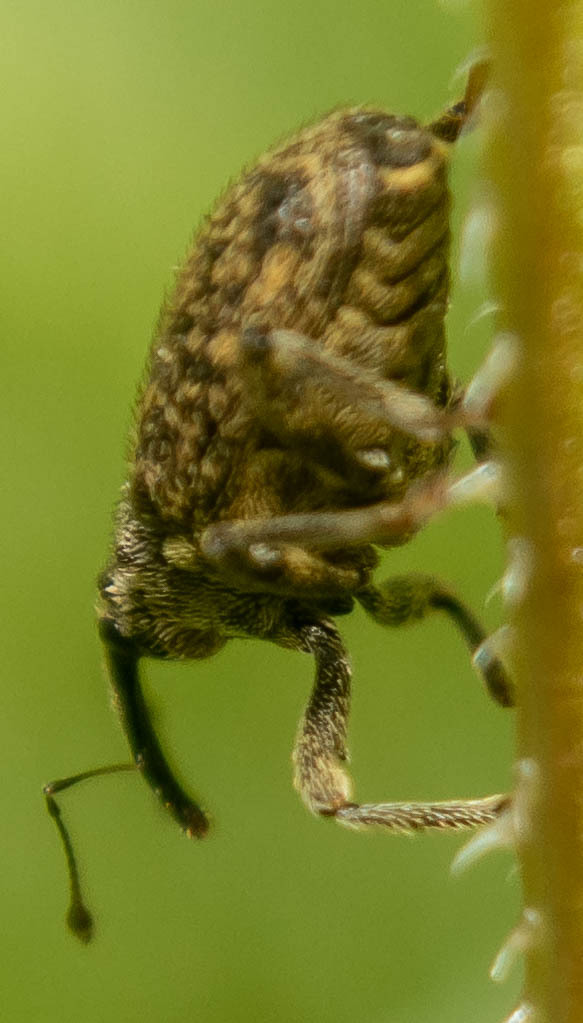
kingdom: Animalia
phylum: Arthropoda
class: Insecta
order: Coleoptera
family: Curculionidae
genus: Ceutorhynchus
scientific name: Ceutorhynchus pallidactylus
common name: Cabbage stem weavil
